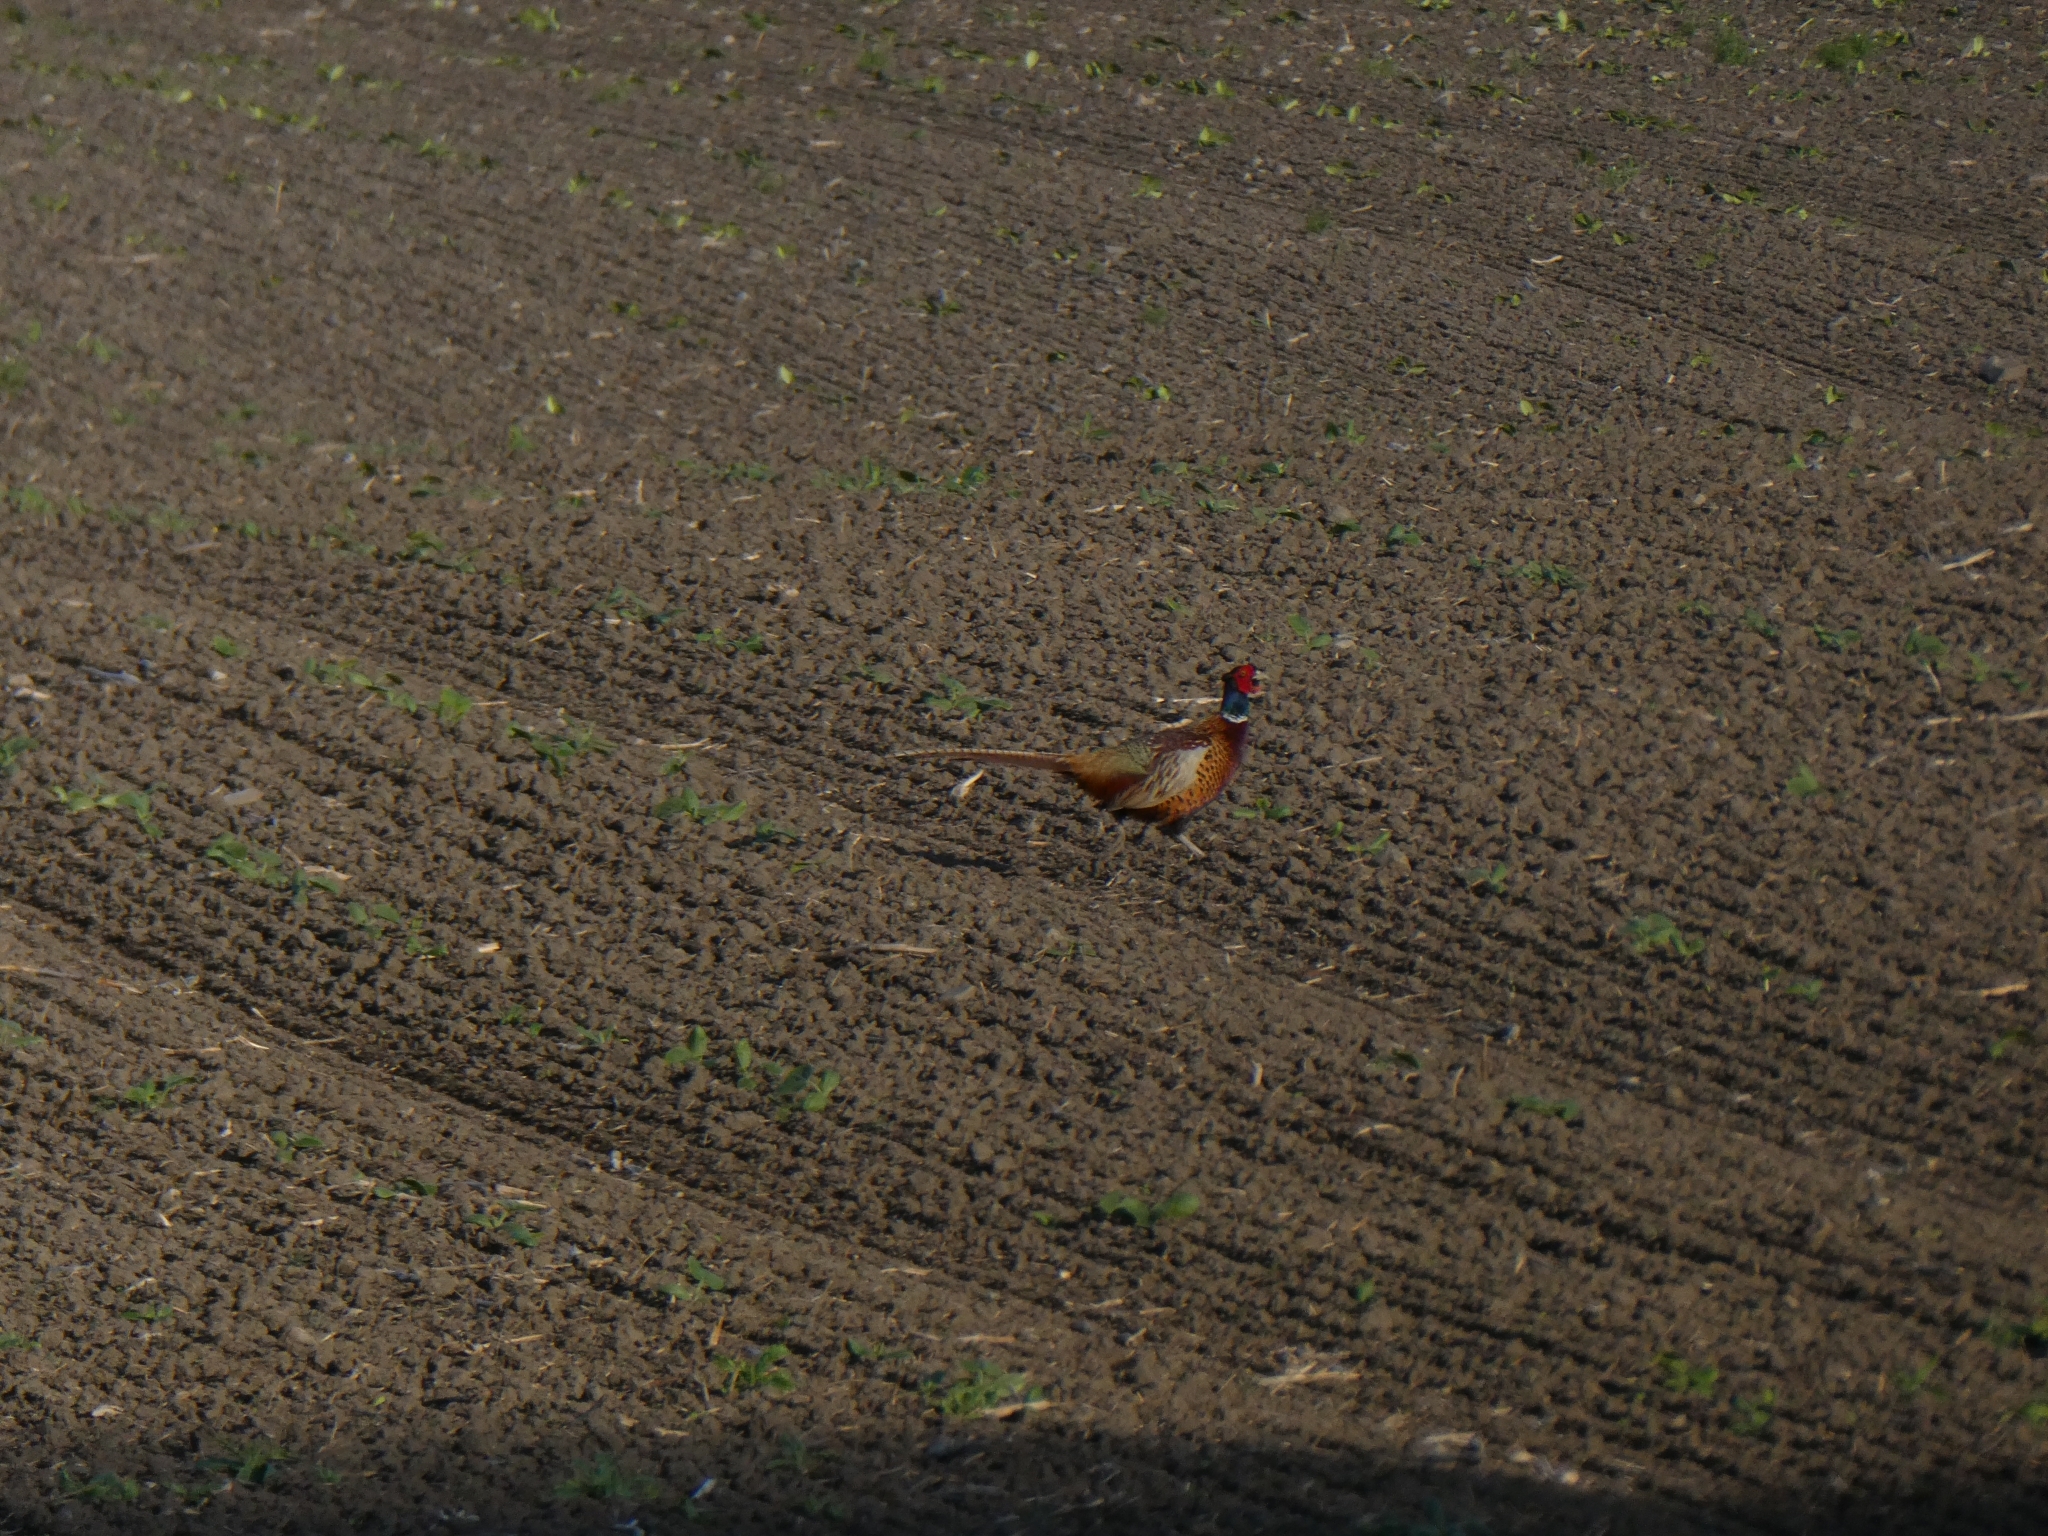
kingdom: Animalia
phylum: Chordata
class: Aves
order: Galliformes
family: Phasianidae
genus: Phasianus
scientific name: Phasianus colchicus
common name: Common pheasant
